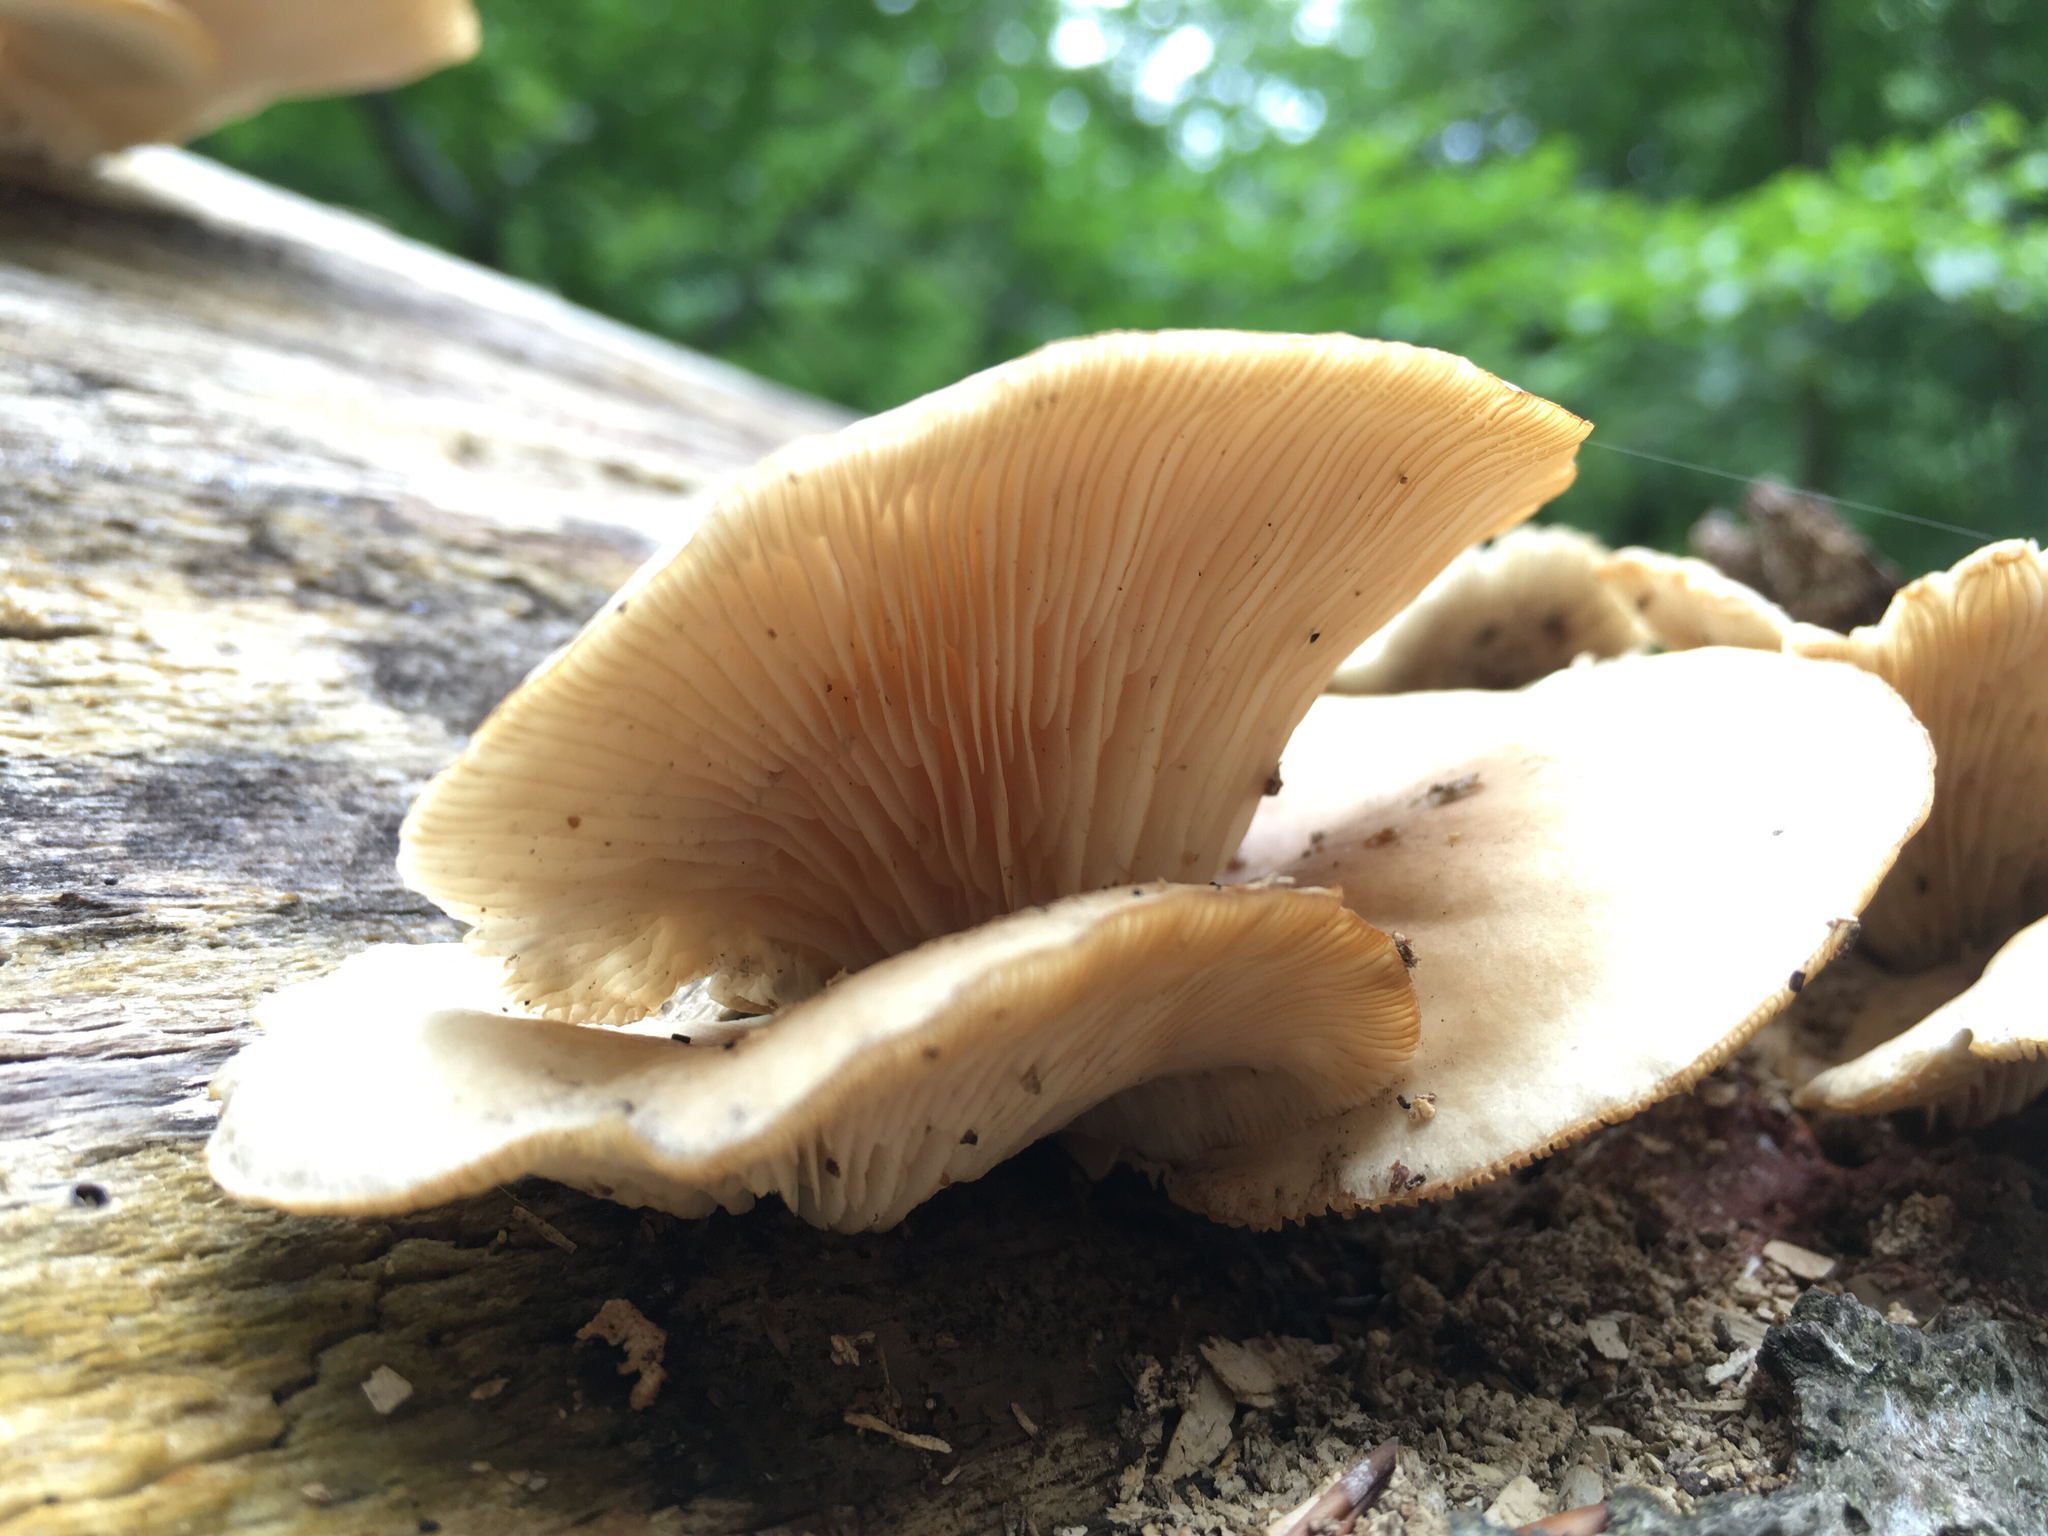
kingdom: Fungi
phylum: Basidiomycota
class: Agaricomycetes
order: Agaricales
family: Pleurotaceae
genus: Pleurotus
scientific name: Pleurotus pulmonarius
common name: Pale oyster
